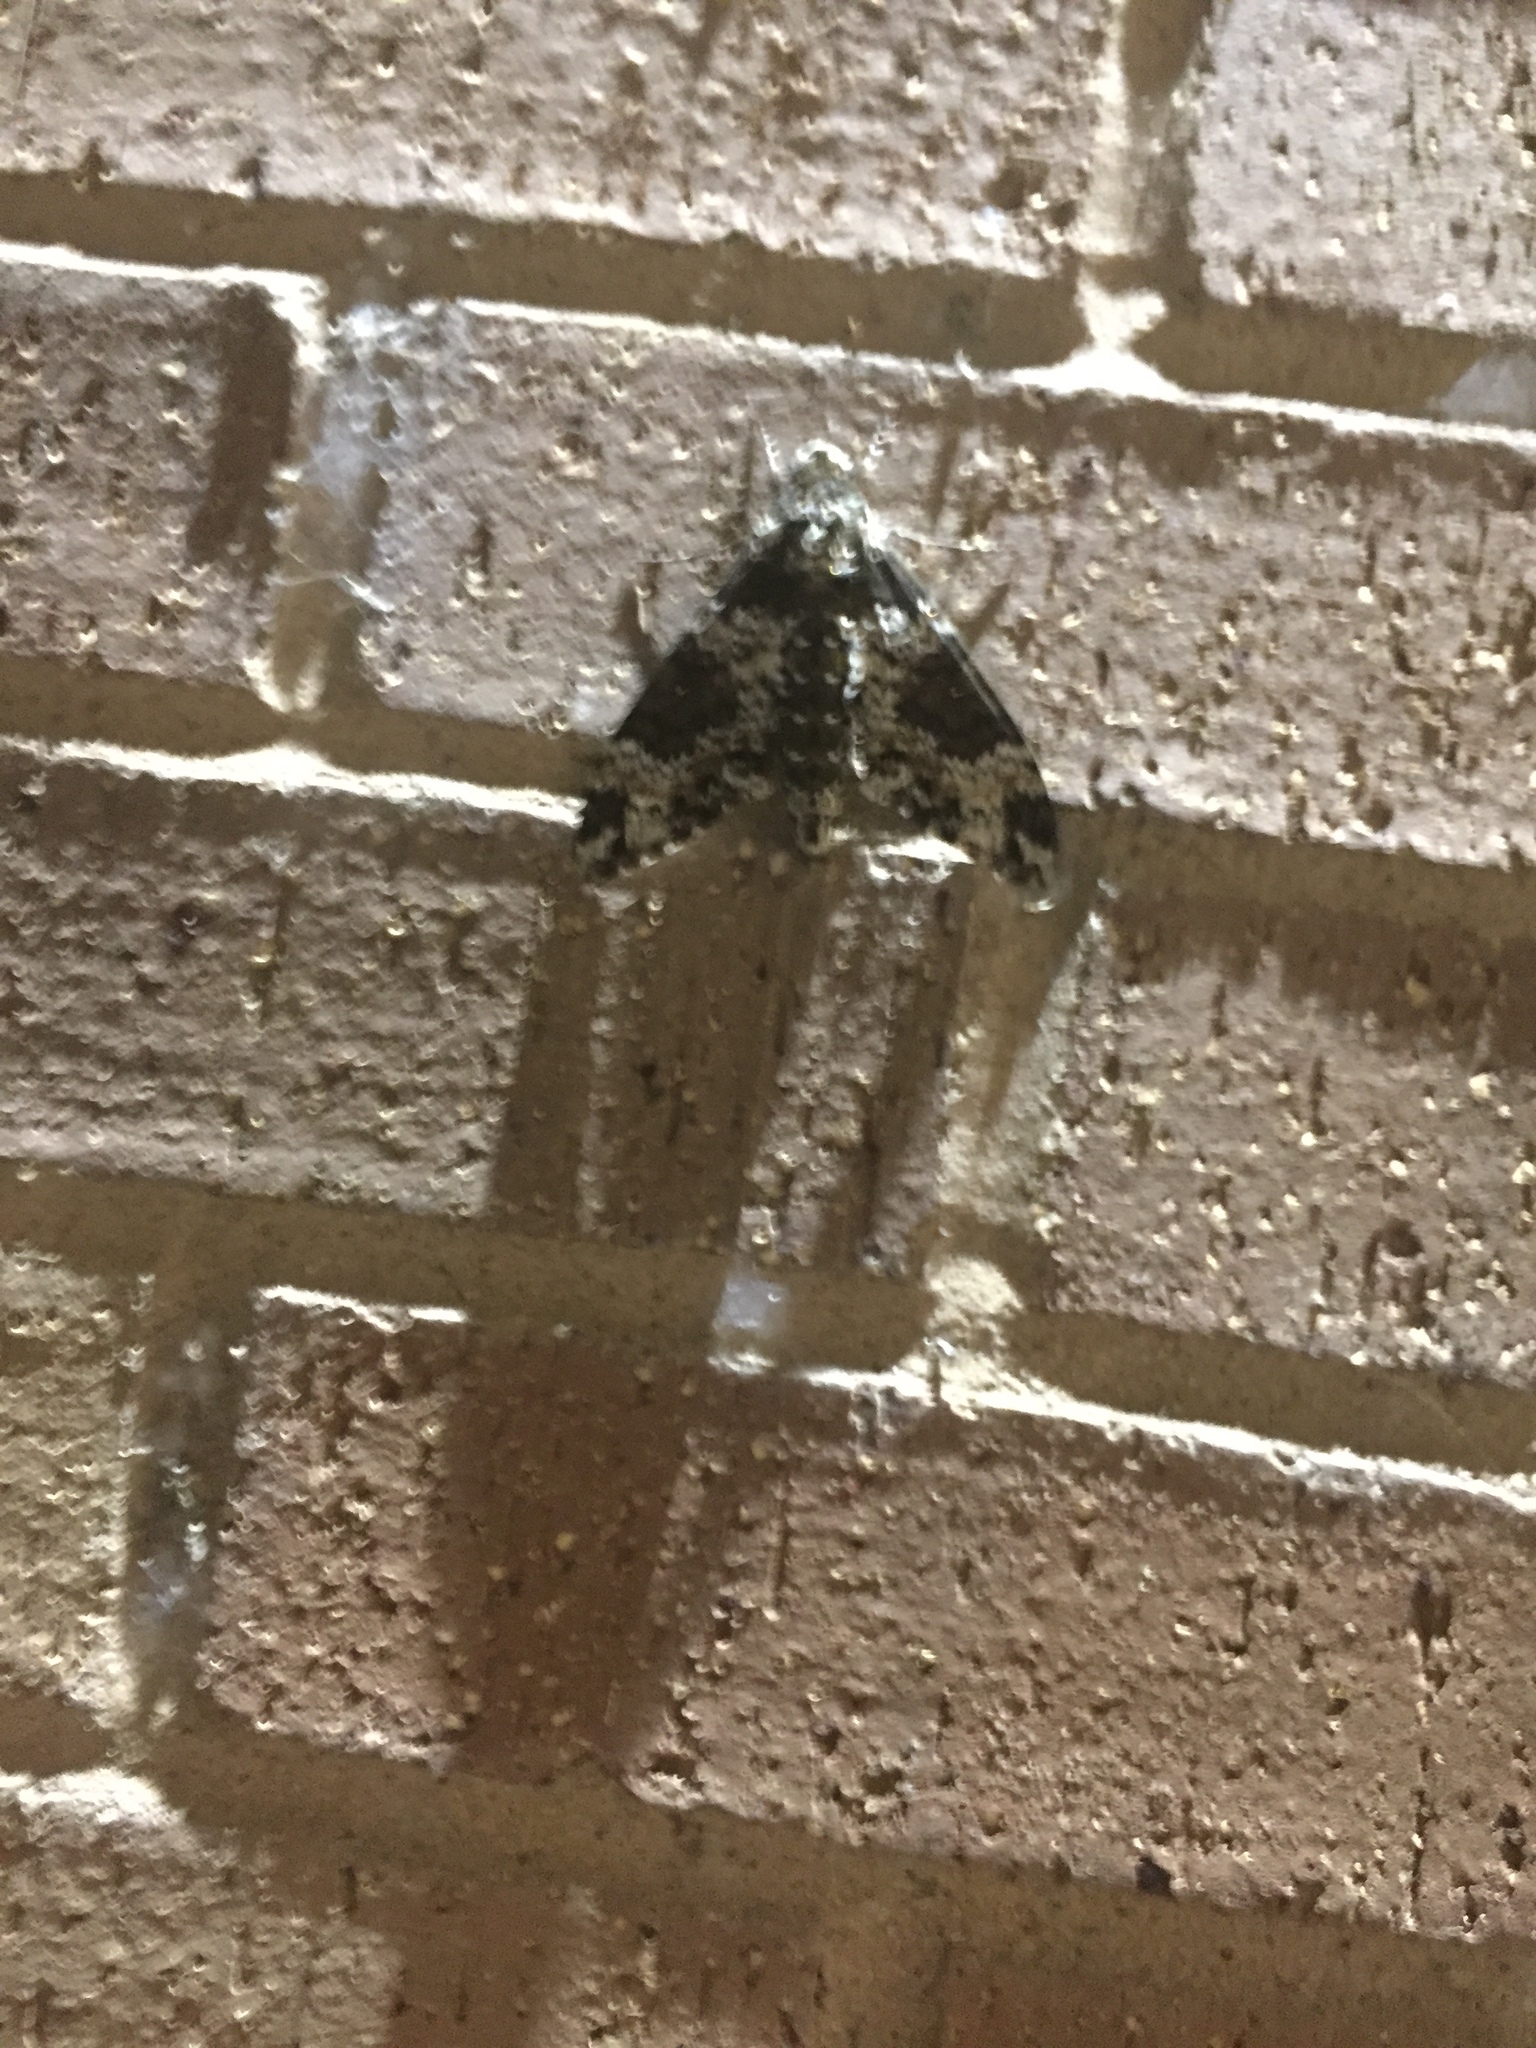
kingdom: Animalia
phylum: Arthropoda
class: Insecta
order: Lepidoptera
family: Sphingidae
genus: Manduca
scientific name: Manduca rustica
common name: Rustic sphinx
